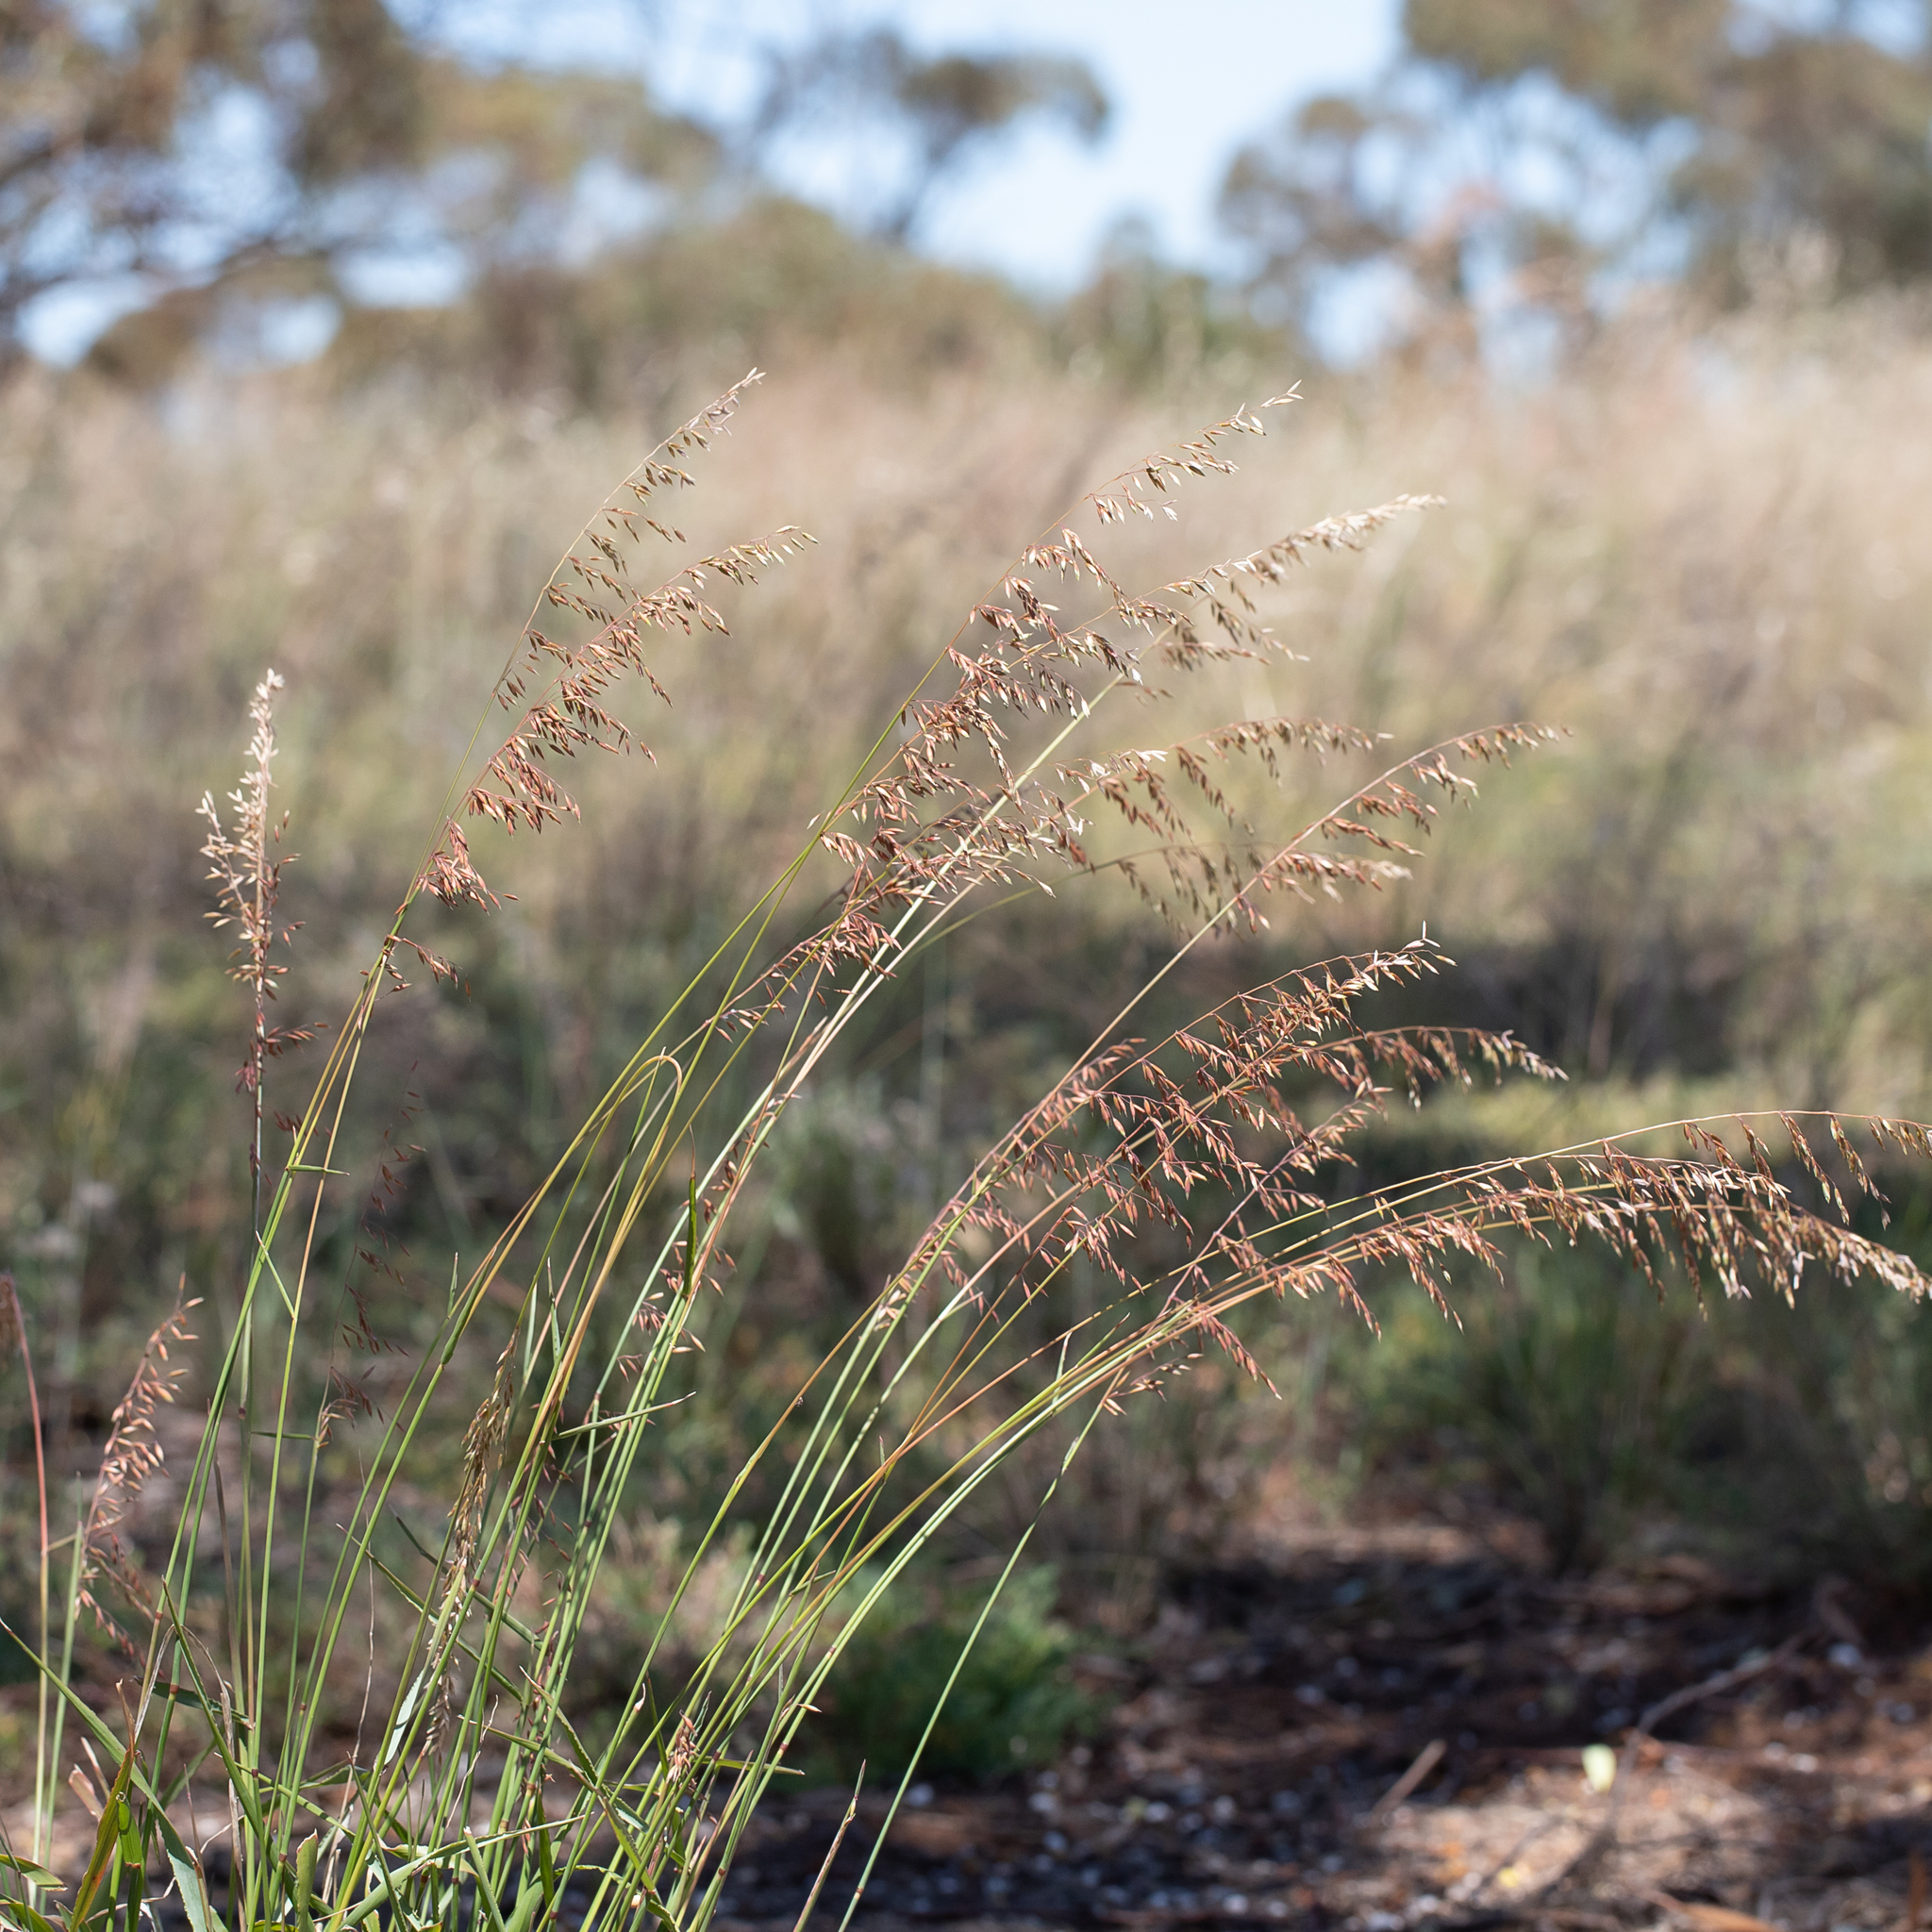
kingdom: Plantae
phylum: Tracheophyta
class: Liliopsida
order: Poales
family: Poaceae
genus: Ehrharta
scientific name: Ehrharta calycina
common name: Perennial veldtgrass
